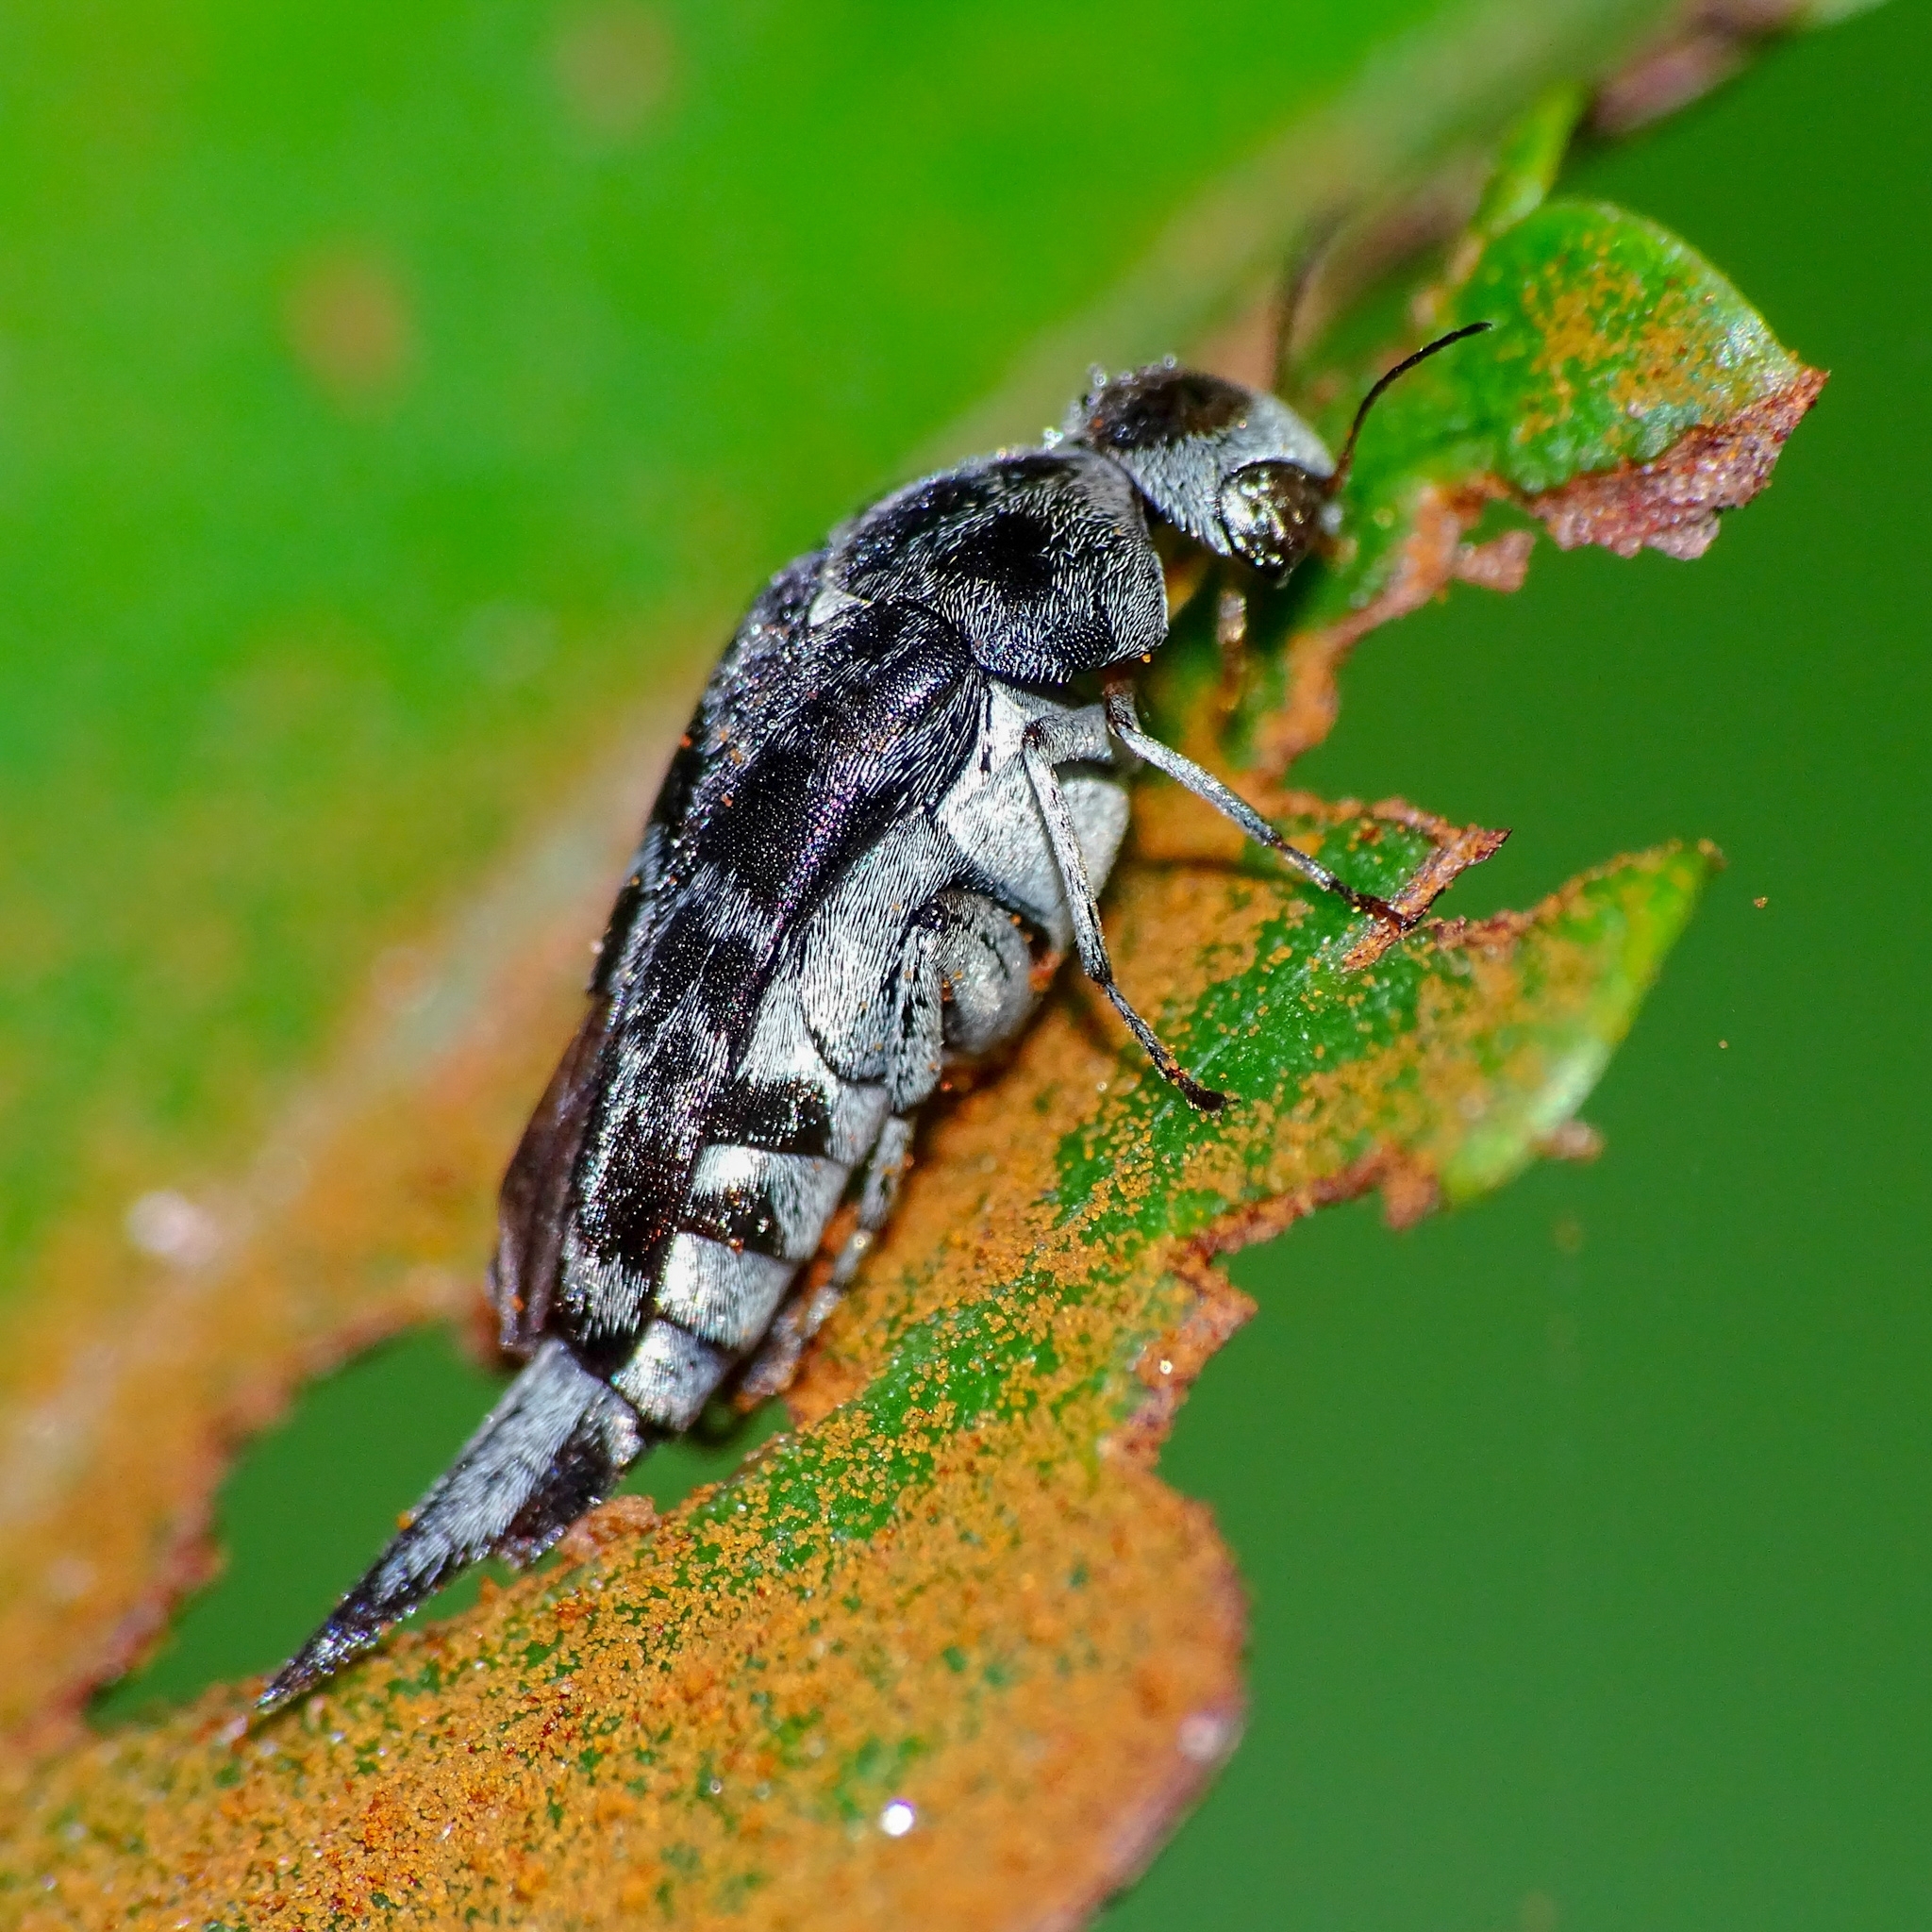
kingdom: Animalia
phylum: Arthropoda
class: Insecta
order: Coleoptera
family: Mordellidae
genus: Glipa
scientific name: Glipa
